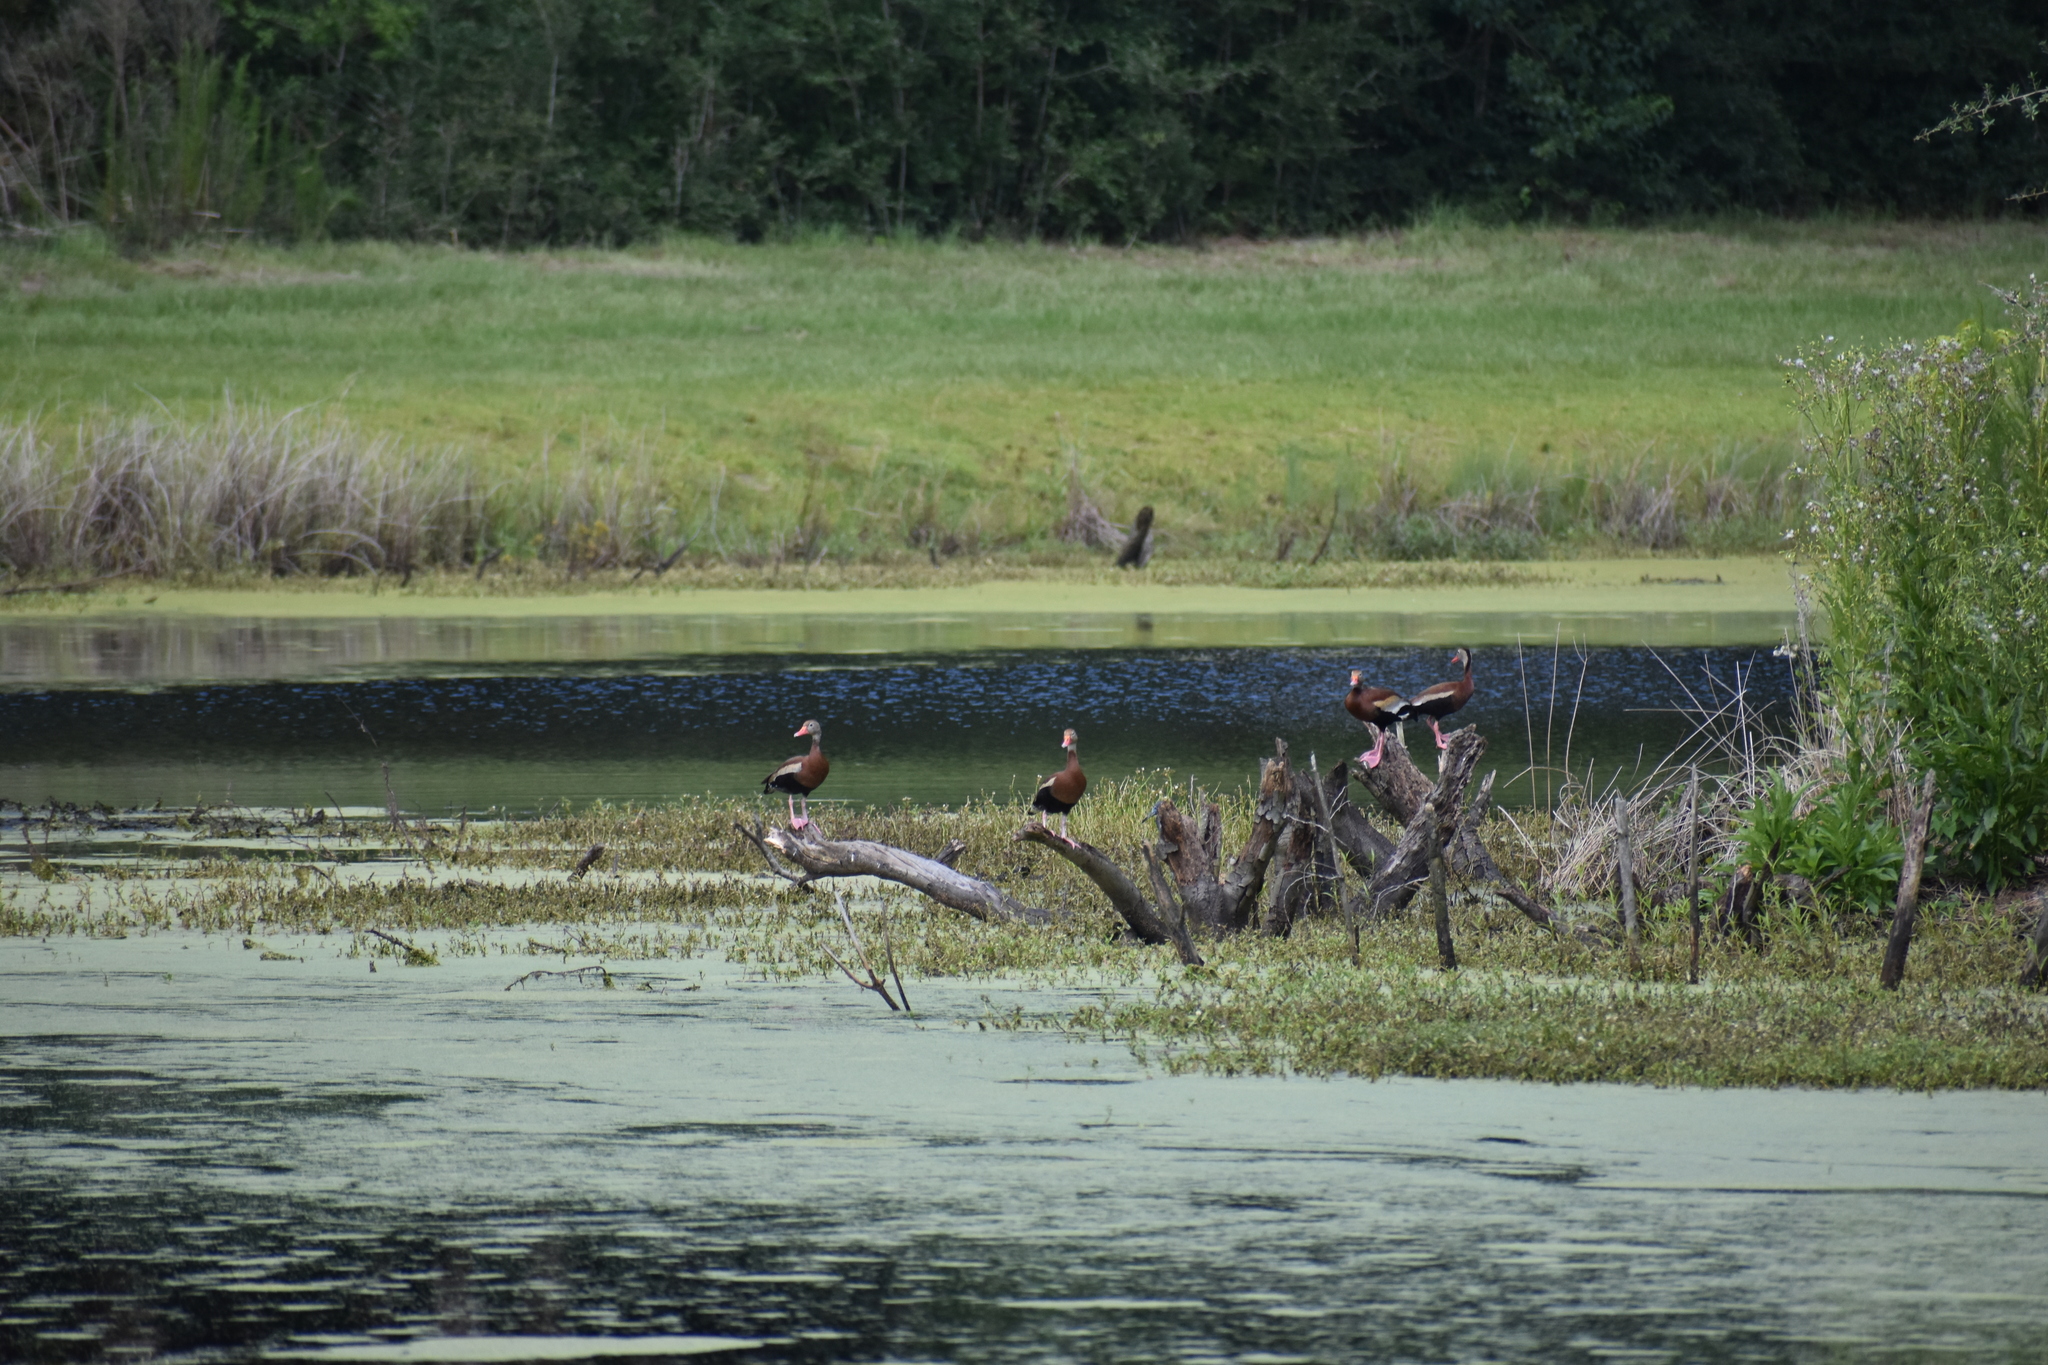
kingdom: Animalia
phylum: Chordata
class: Aves
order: Anseriformes
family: Anatidae
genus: Dendrocygna
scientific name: Dendrocygna autumnalis
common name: Black-bellied whistling duck
